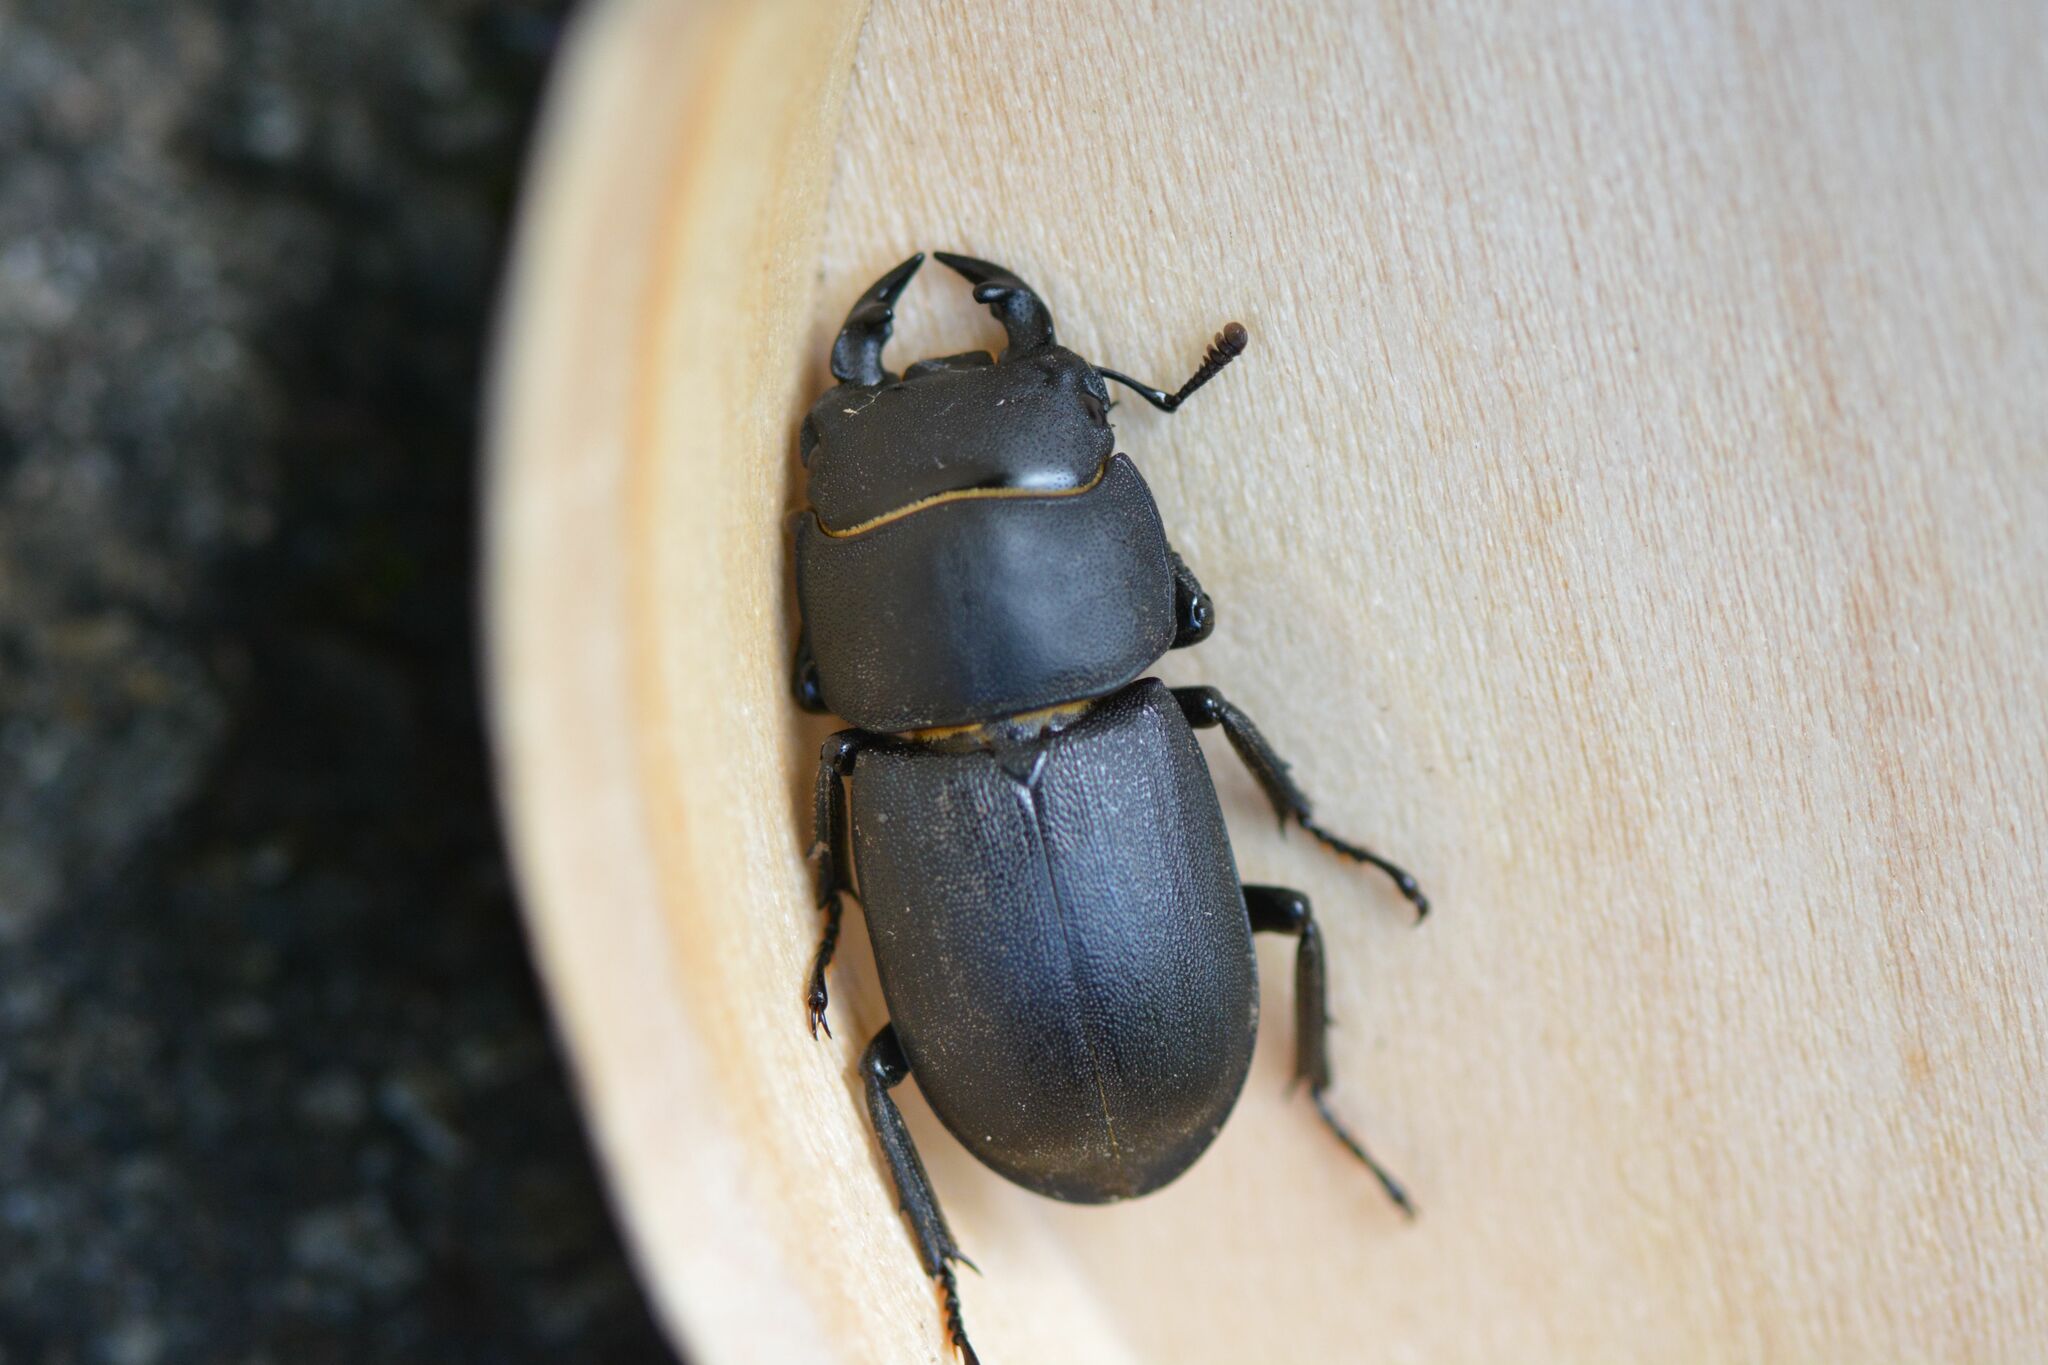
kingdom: Animalia
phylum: Arthropoda
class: Insecta
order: Coleoptera
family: Lucanidae
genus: Dorcus
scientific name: Dorcus parallelipipedus
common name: Lesser stag beetle
